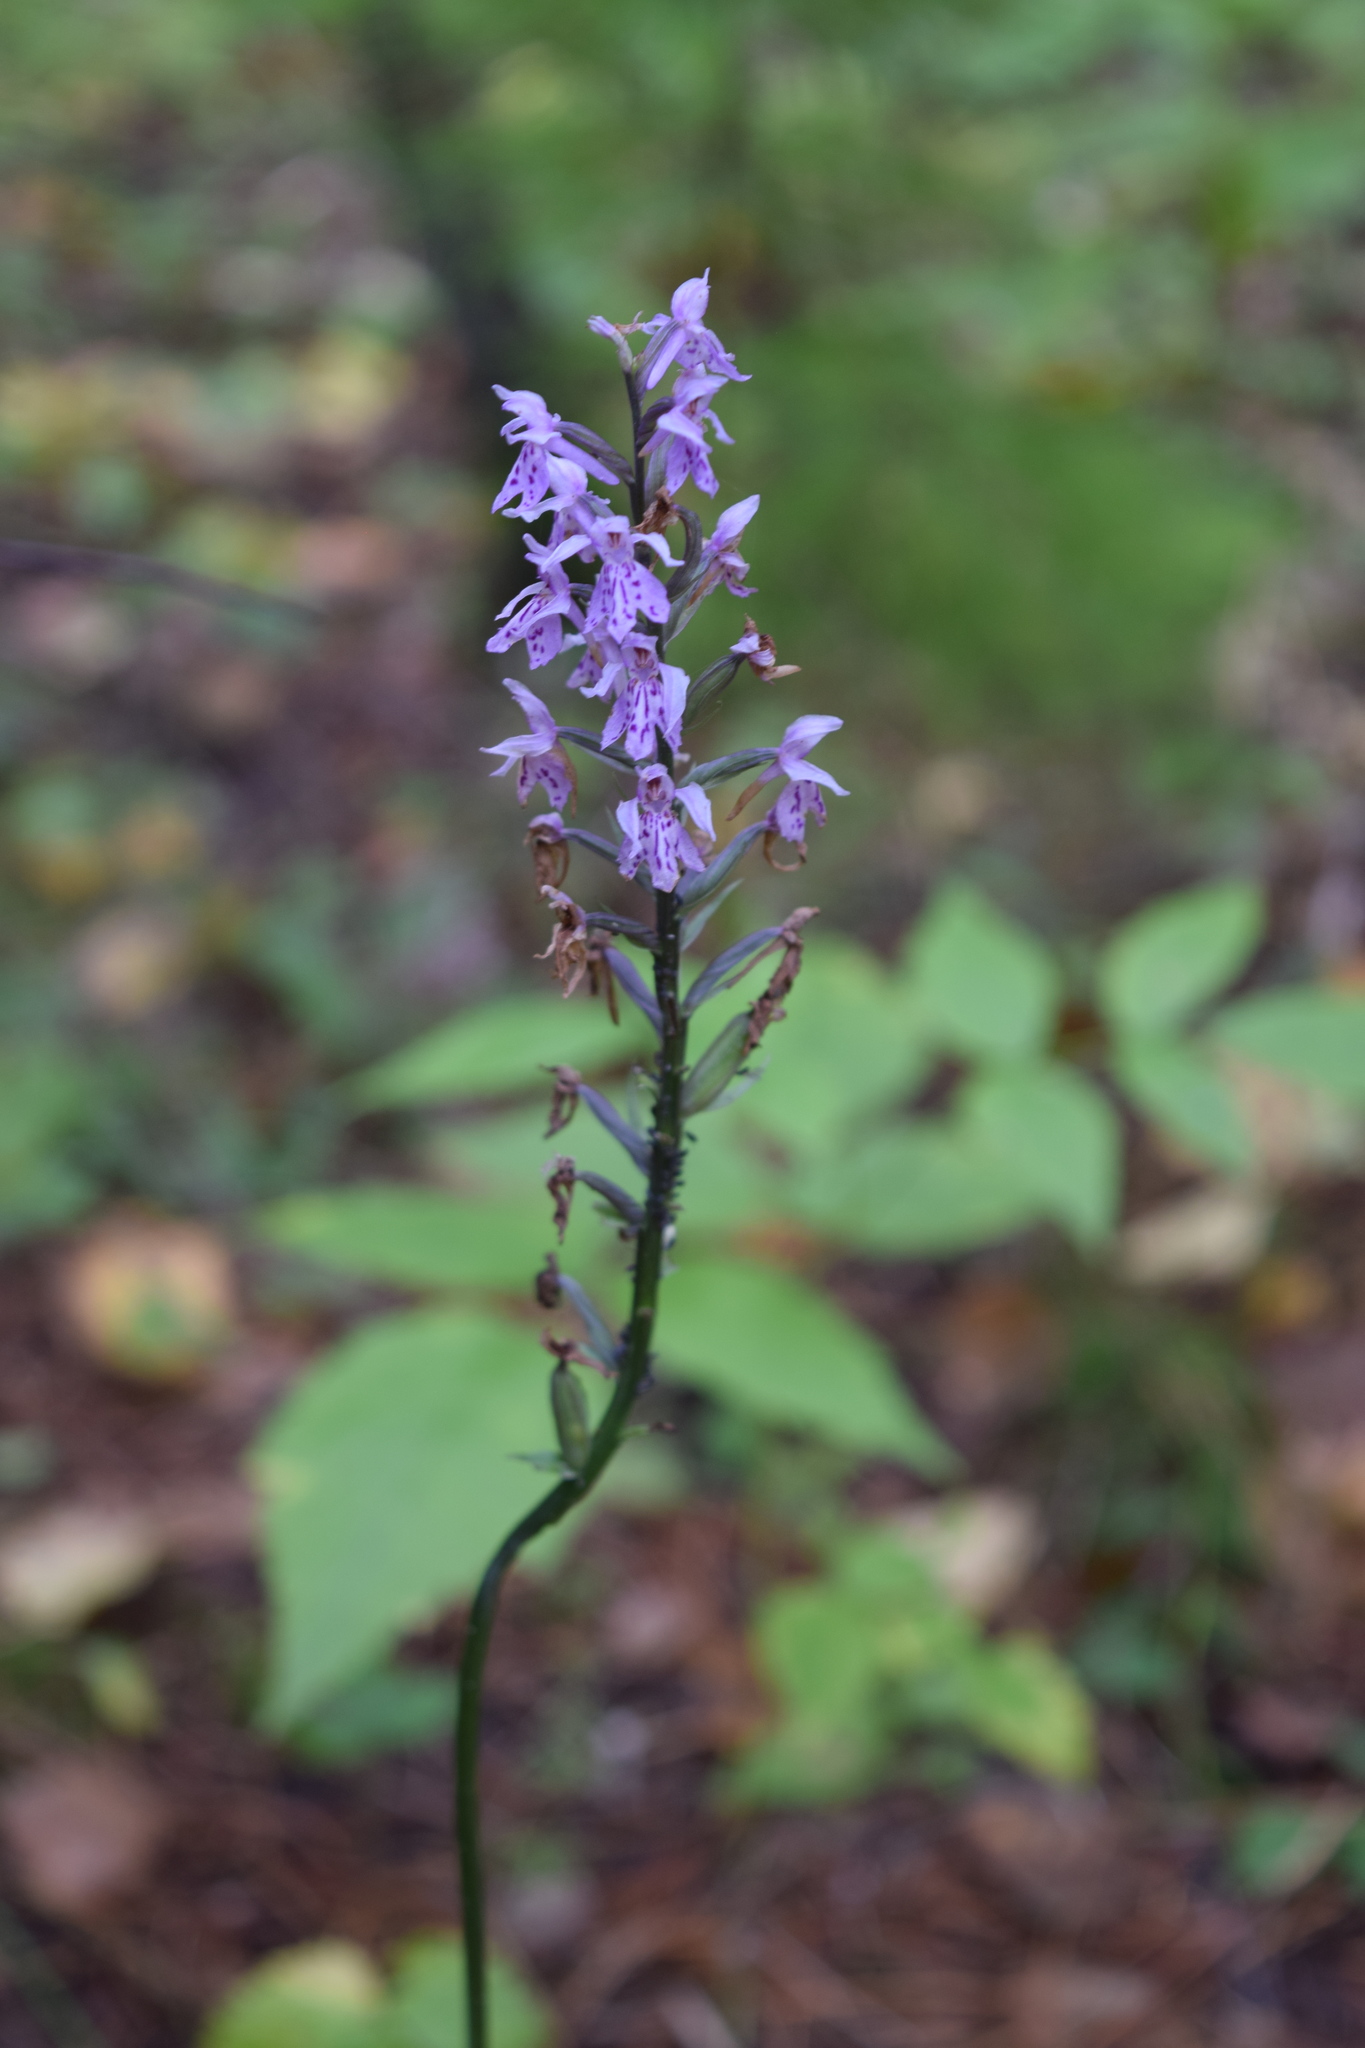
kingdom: Plantae
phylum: Tracheophyta
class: Liliopsida
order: Asparagales
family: Orchidaceae
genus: Dactylorhiza
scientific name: Dactylorhiza maculata
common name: Heath spotted-orchid
